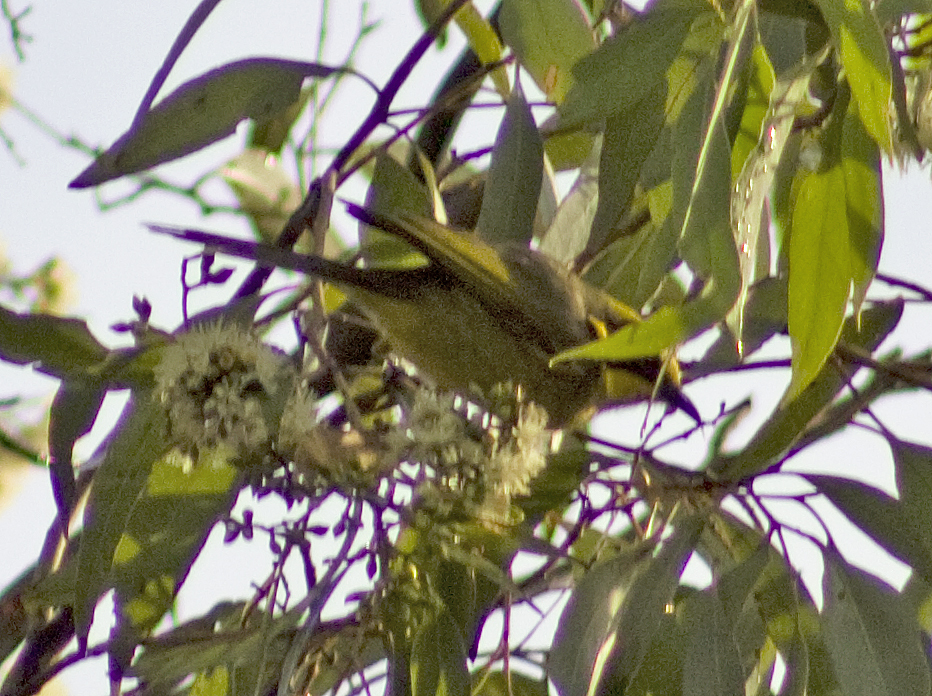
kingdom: Animalia
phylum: Chordata
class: Aves
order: Passeriformes
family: Meliphagidae
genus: Lichenostomus
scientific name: Lichenostomus melanops
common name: Yellow-tufted honeyeater
